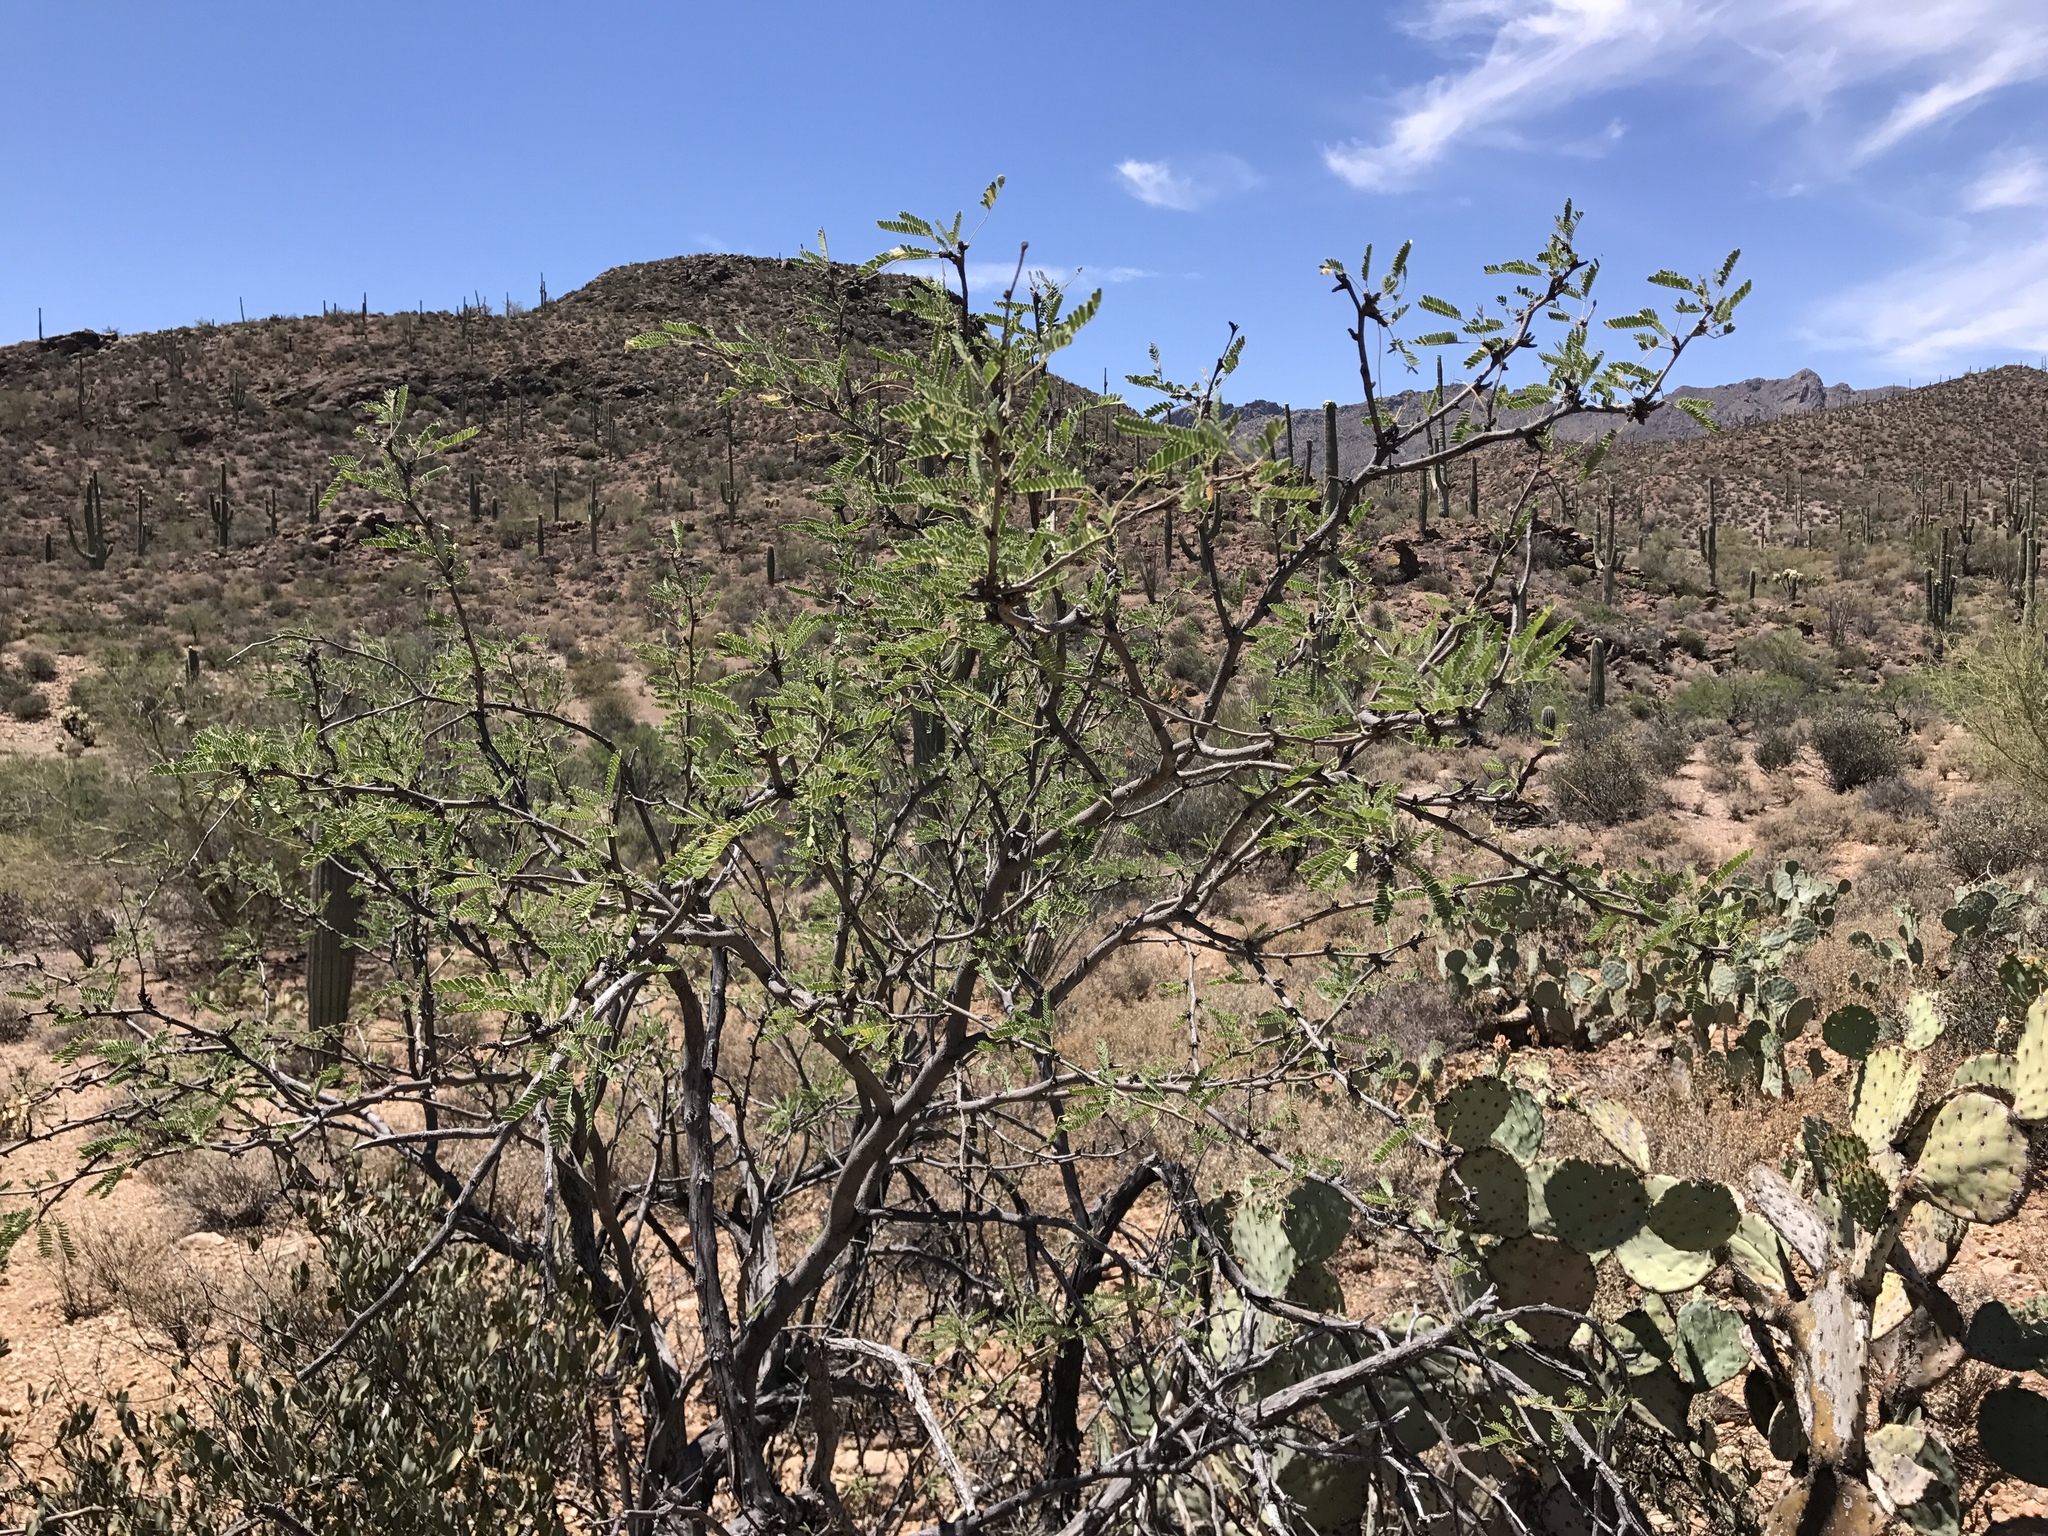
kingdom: Plantae
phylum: Tracheophyta
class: Magnoliopsida
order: Fabales
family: Fabaceae
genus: Prosopis
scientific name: Prosopis velutina
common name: Velvet mesquite
